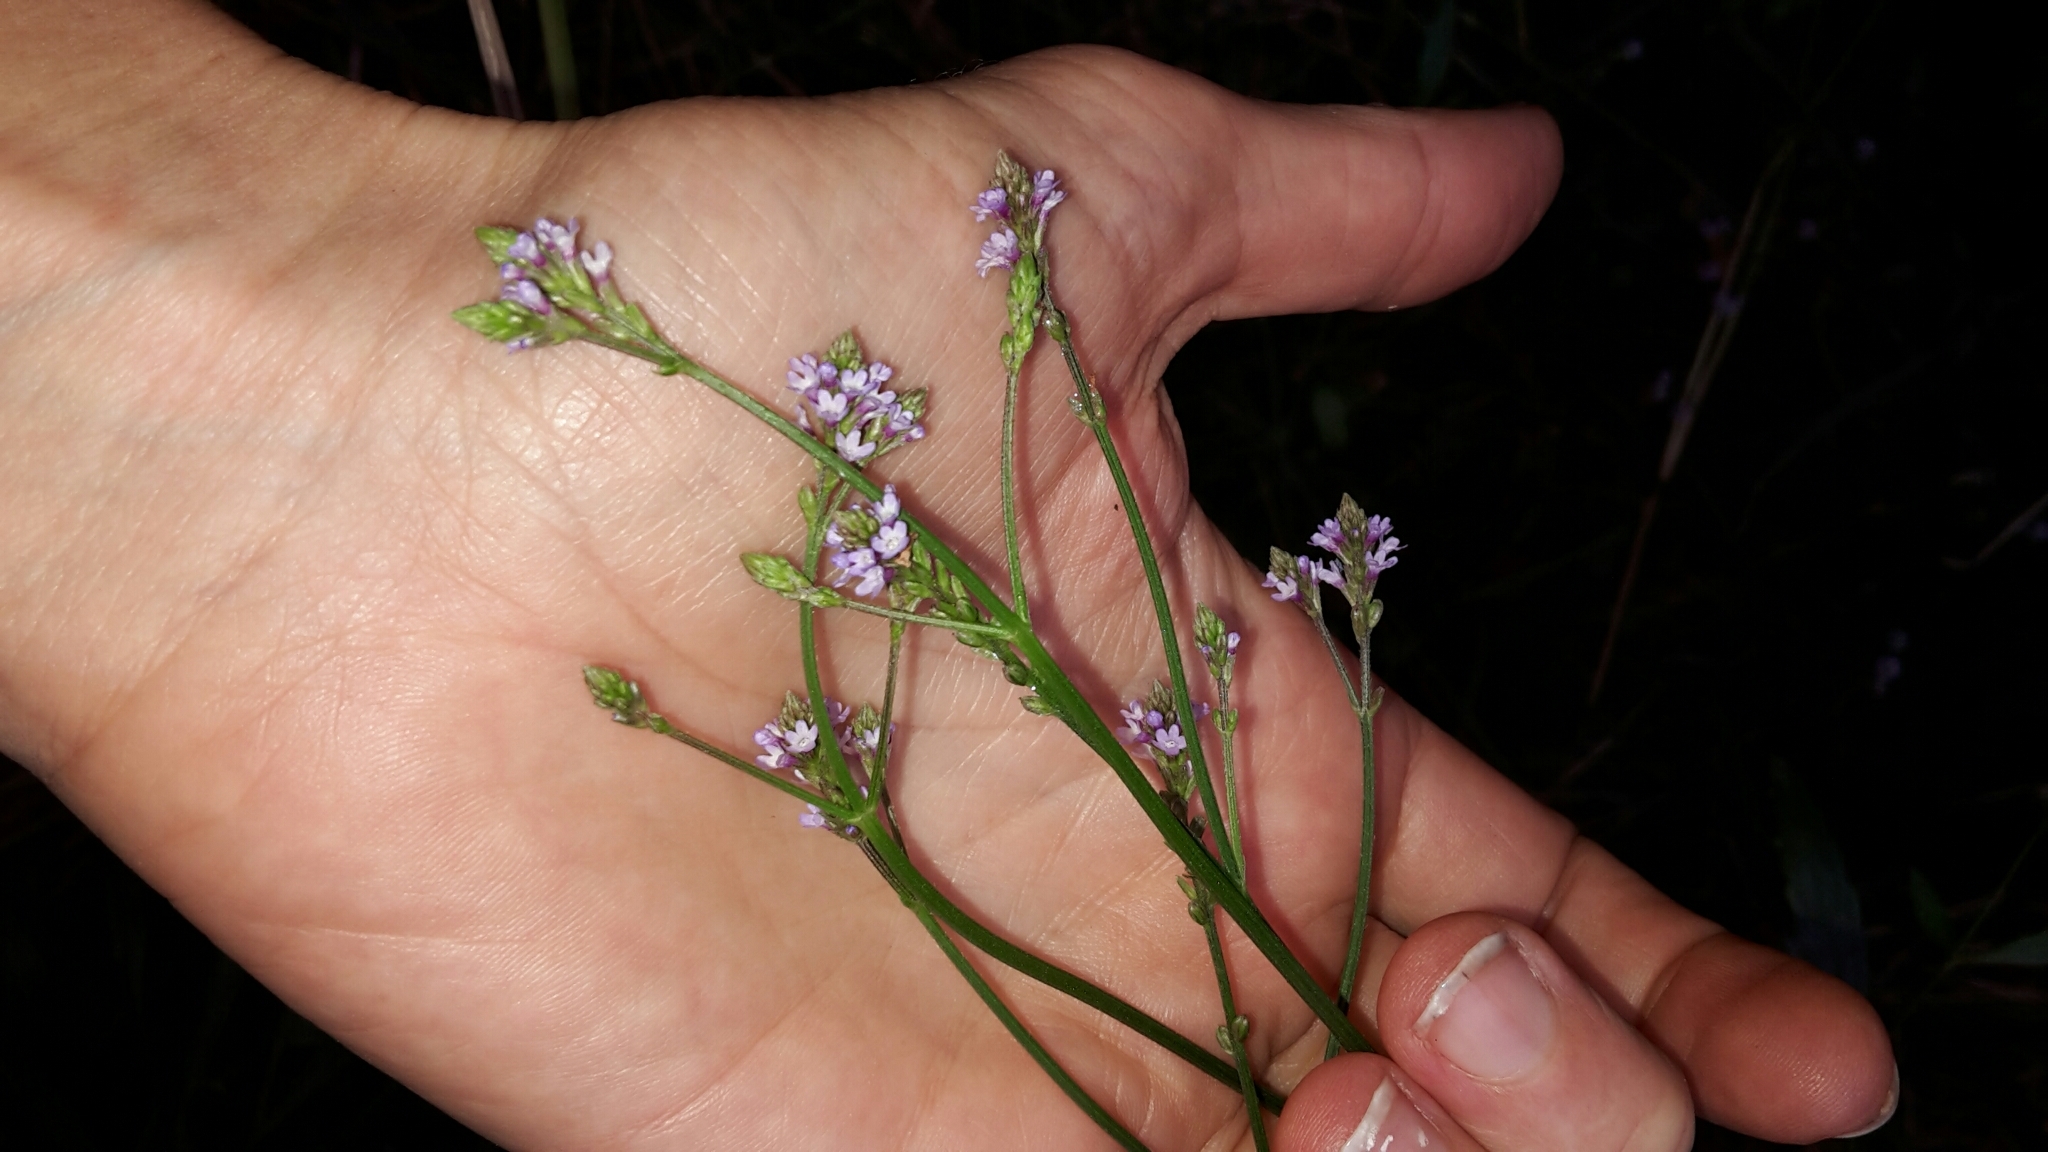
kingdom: Plantae
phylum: Tracheophyta
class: Magnoliopsida
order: Lamiales
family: Verbenaceae
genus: Verbena
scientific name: Verbena litoralis
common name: Seashore vervain
